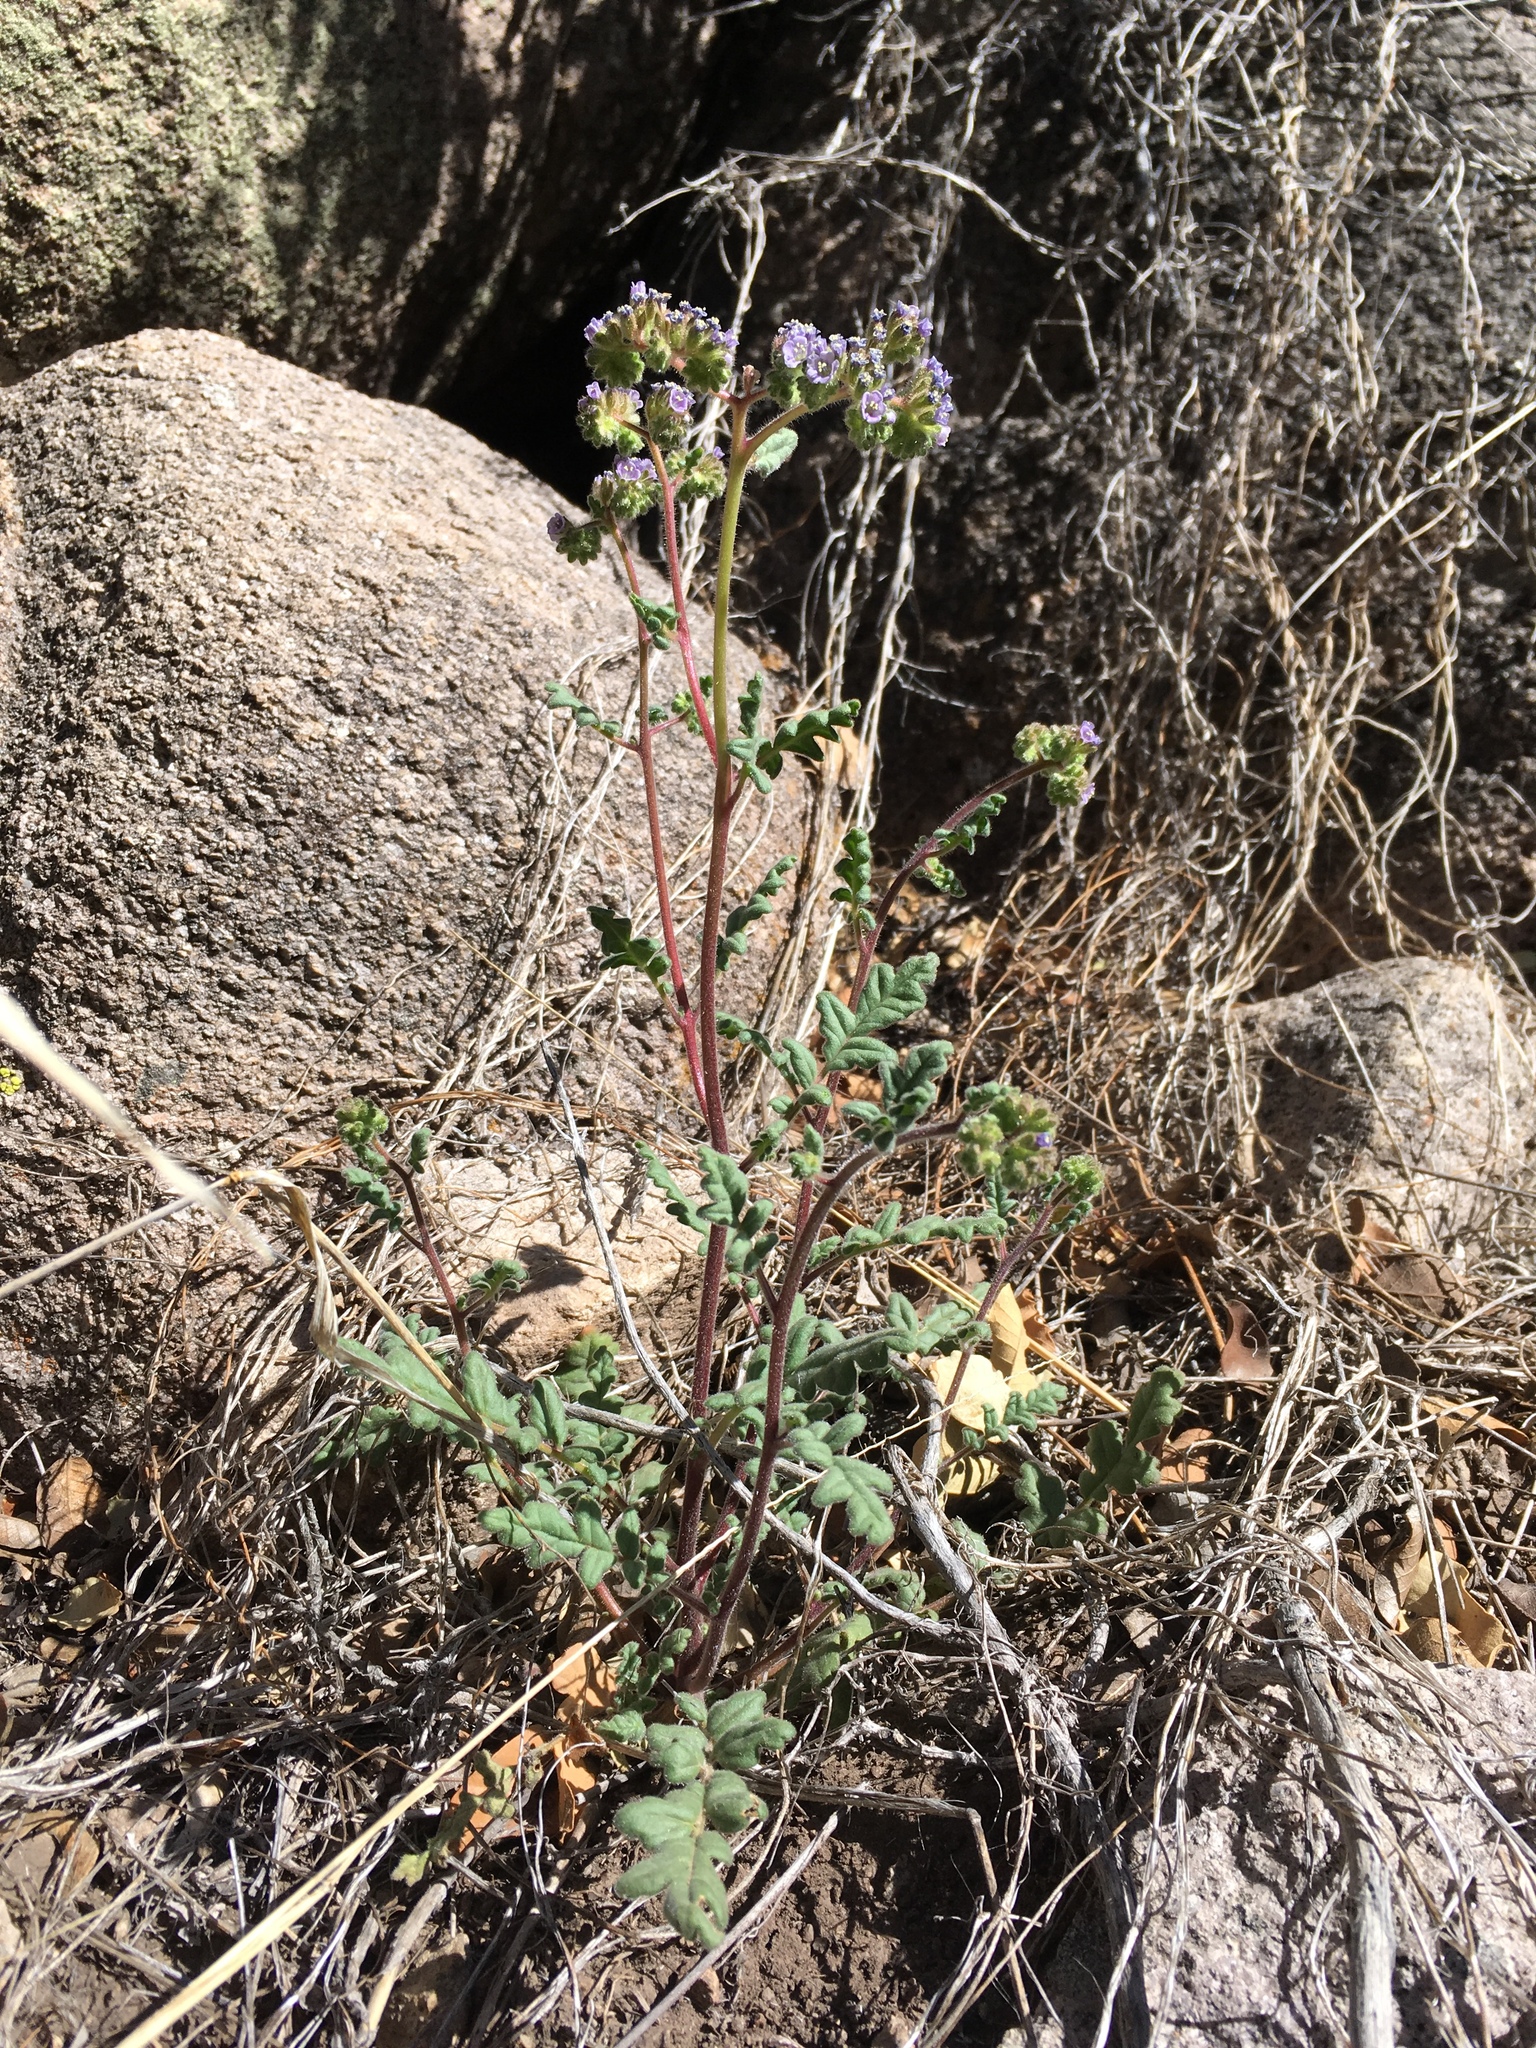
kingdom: Plantae
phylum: Tracheophyta
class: Magnoliopsida
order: Boraginales
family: Hydrophyllaceae
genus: Phacelia
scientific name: Phacelia coerulea
